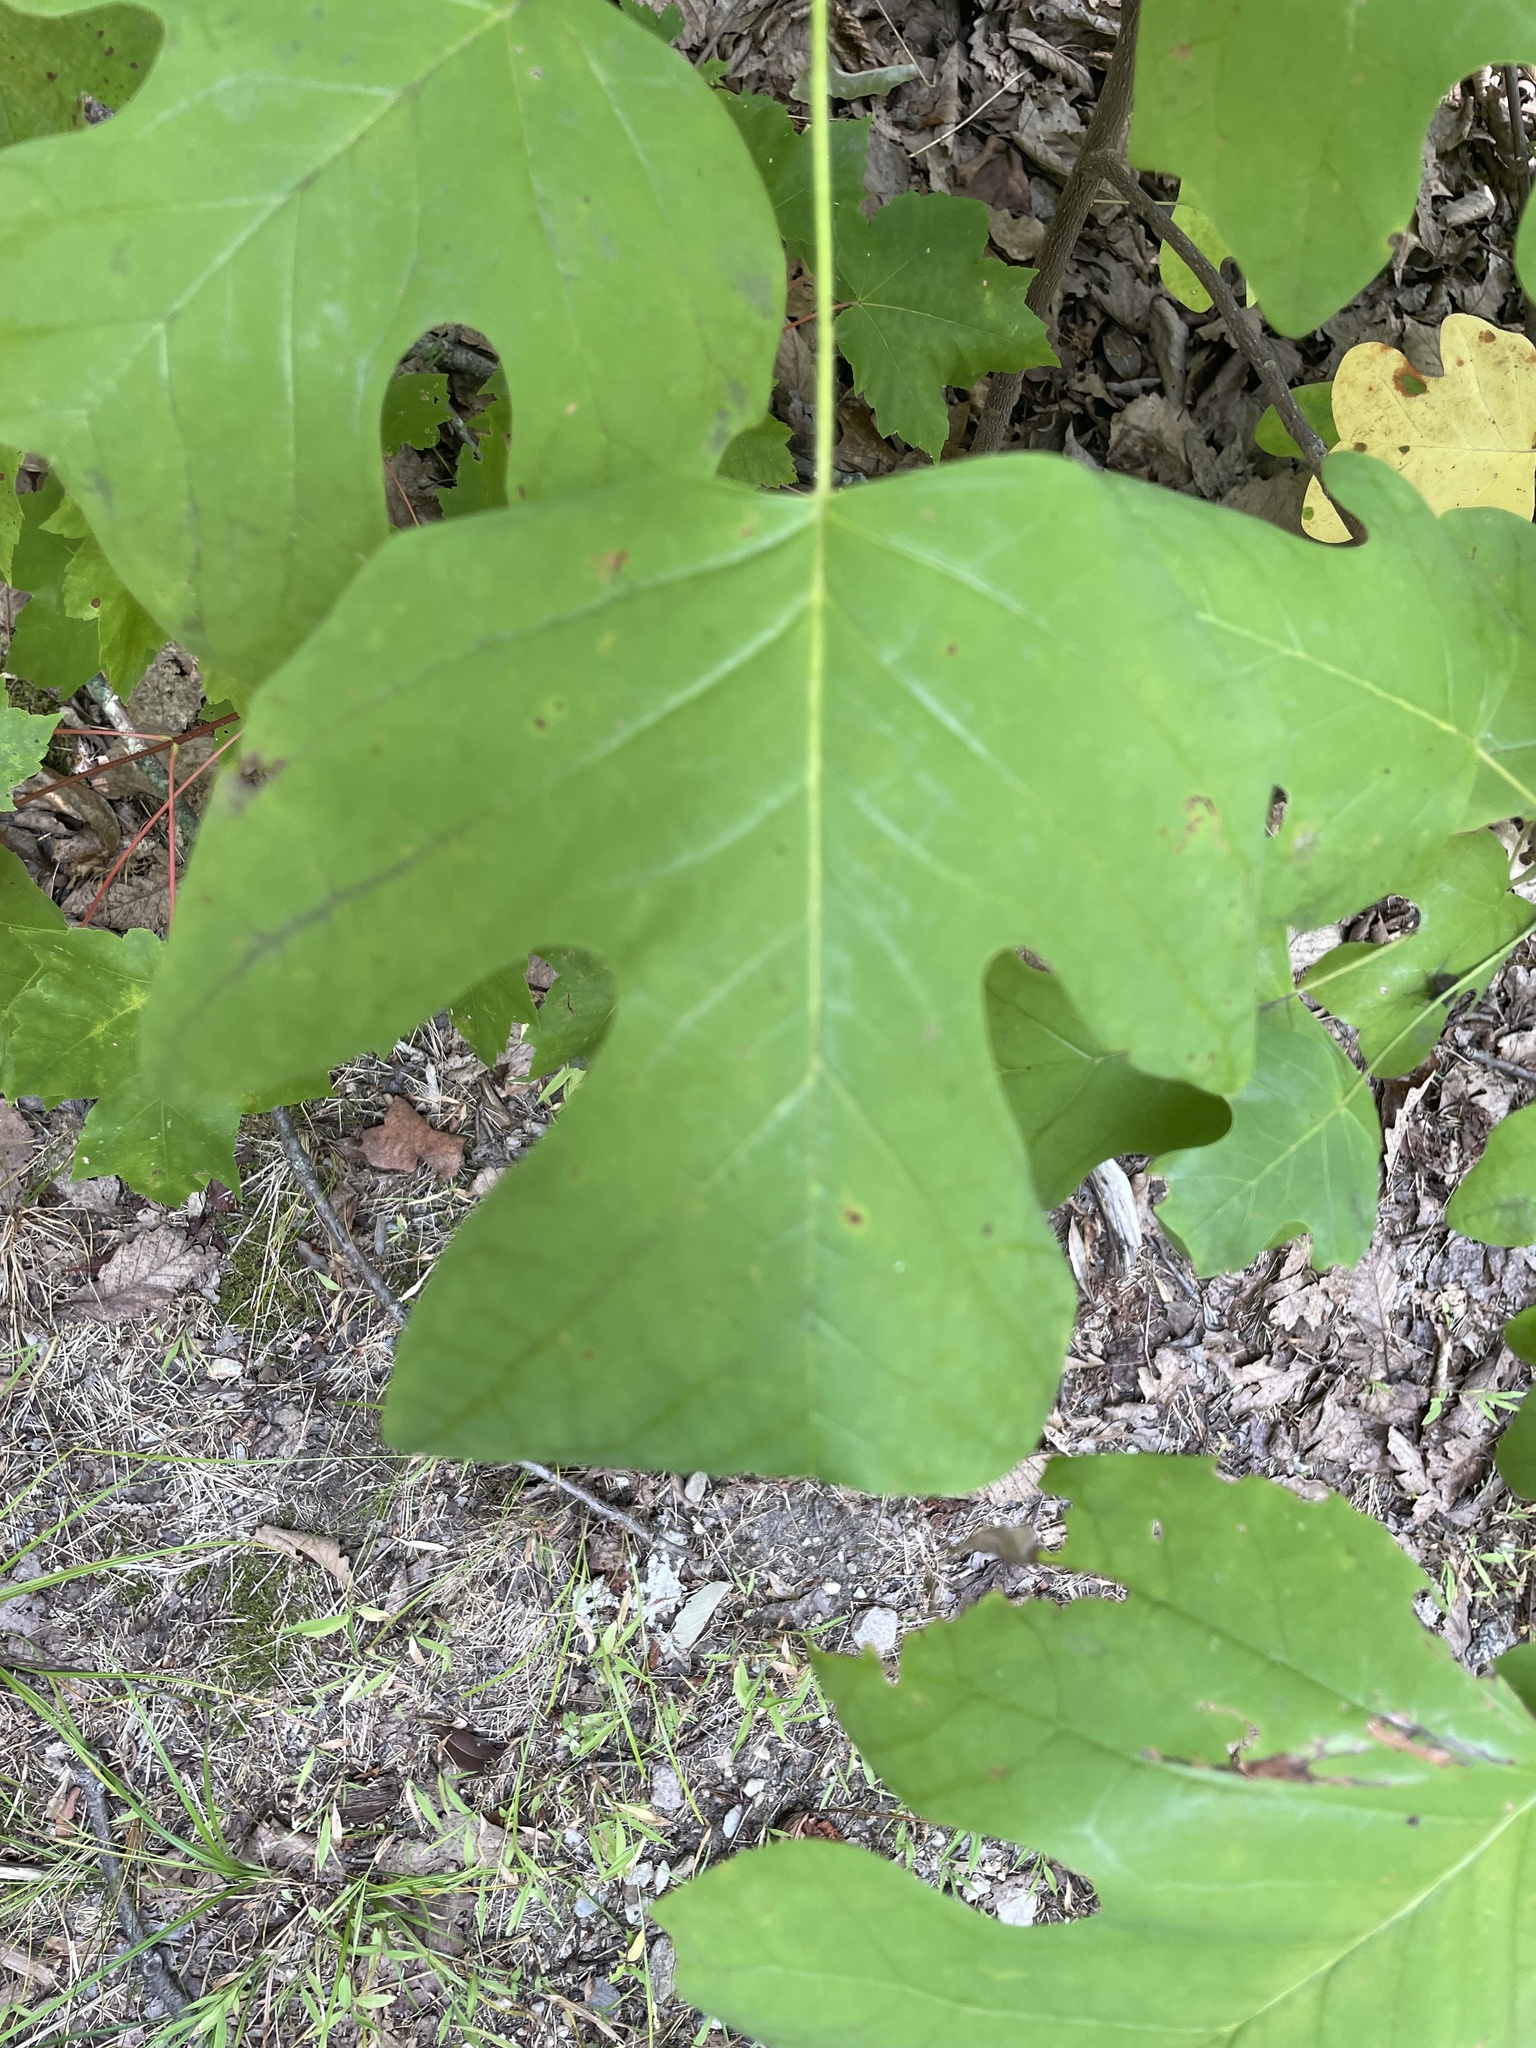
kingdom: Plantae
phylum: Tracheophyta
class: Magnoliopsida
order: Magnoliales
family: Magnoliaceae
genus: Liriodendron
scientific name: Liriodendron tulipifera
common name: Tulip tree
